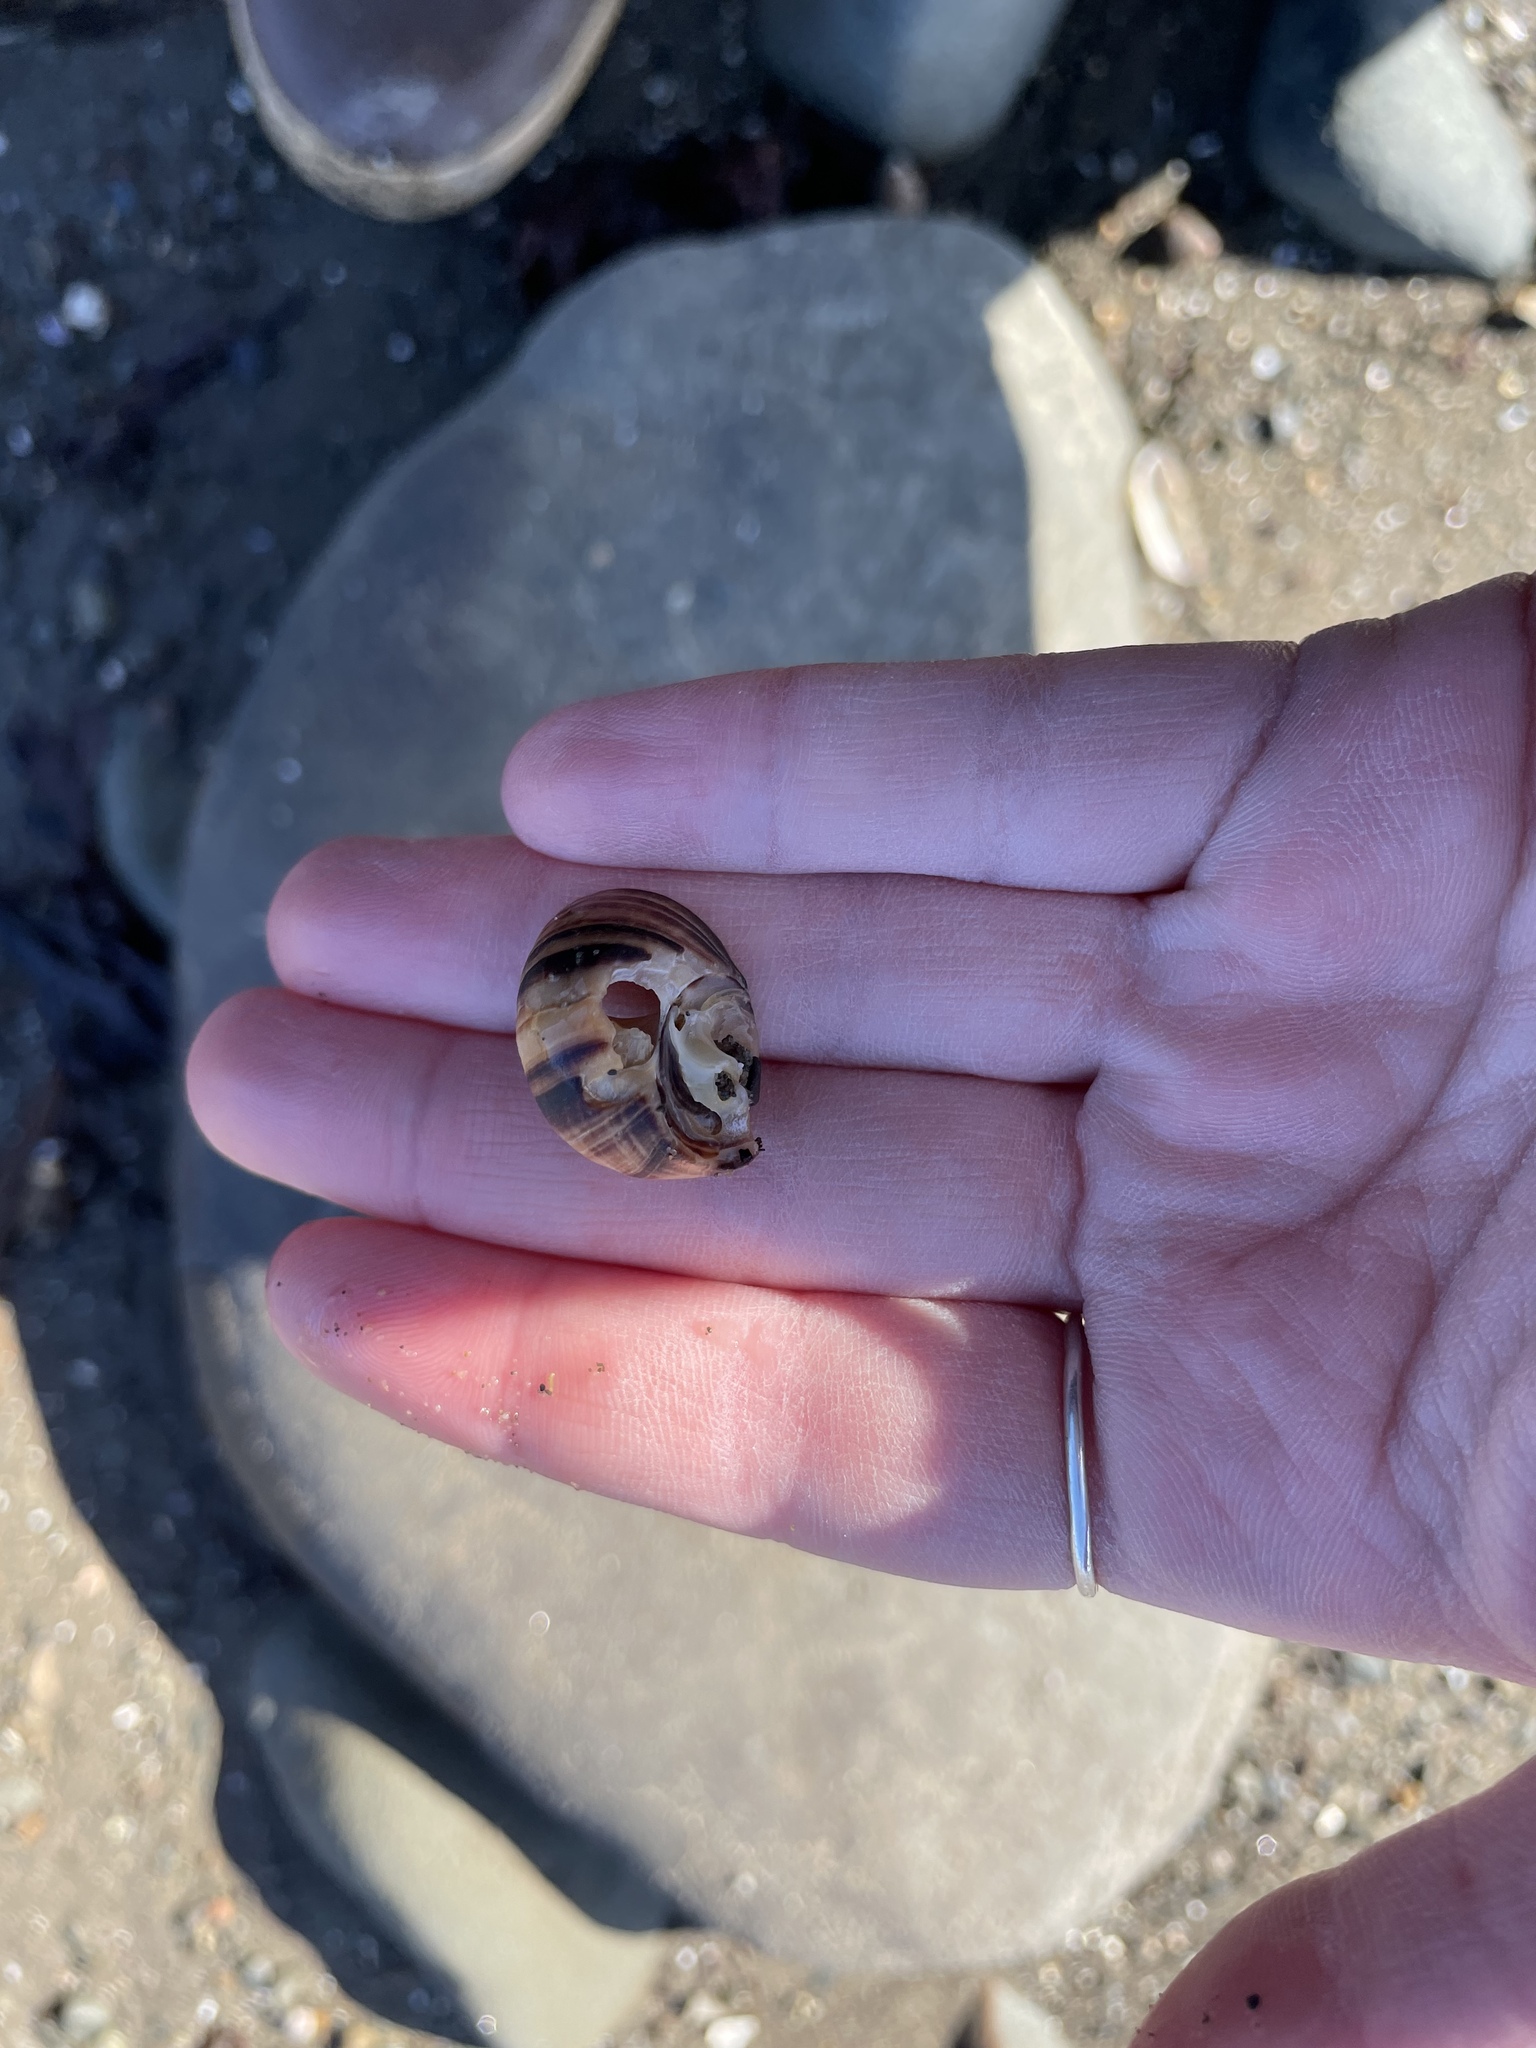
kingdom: Animalia
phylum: Mollusca
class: Gastropoda
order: Littorinimorpha
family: Littorinidae
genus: Littorina
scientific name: Littorina littorea
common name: Common periwinkle
